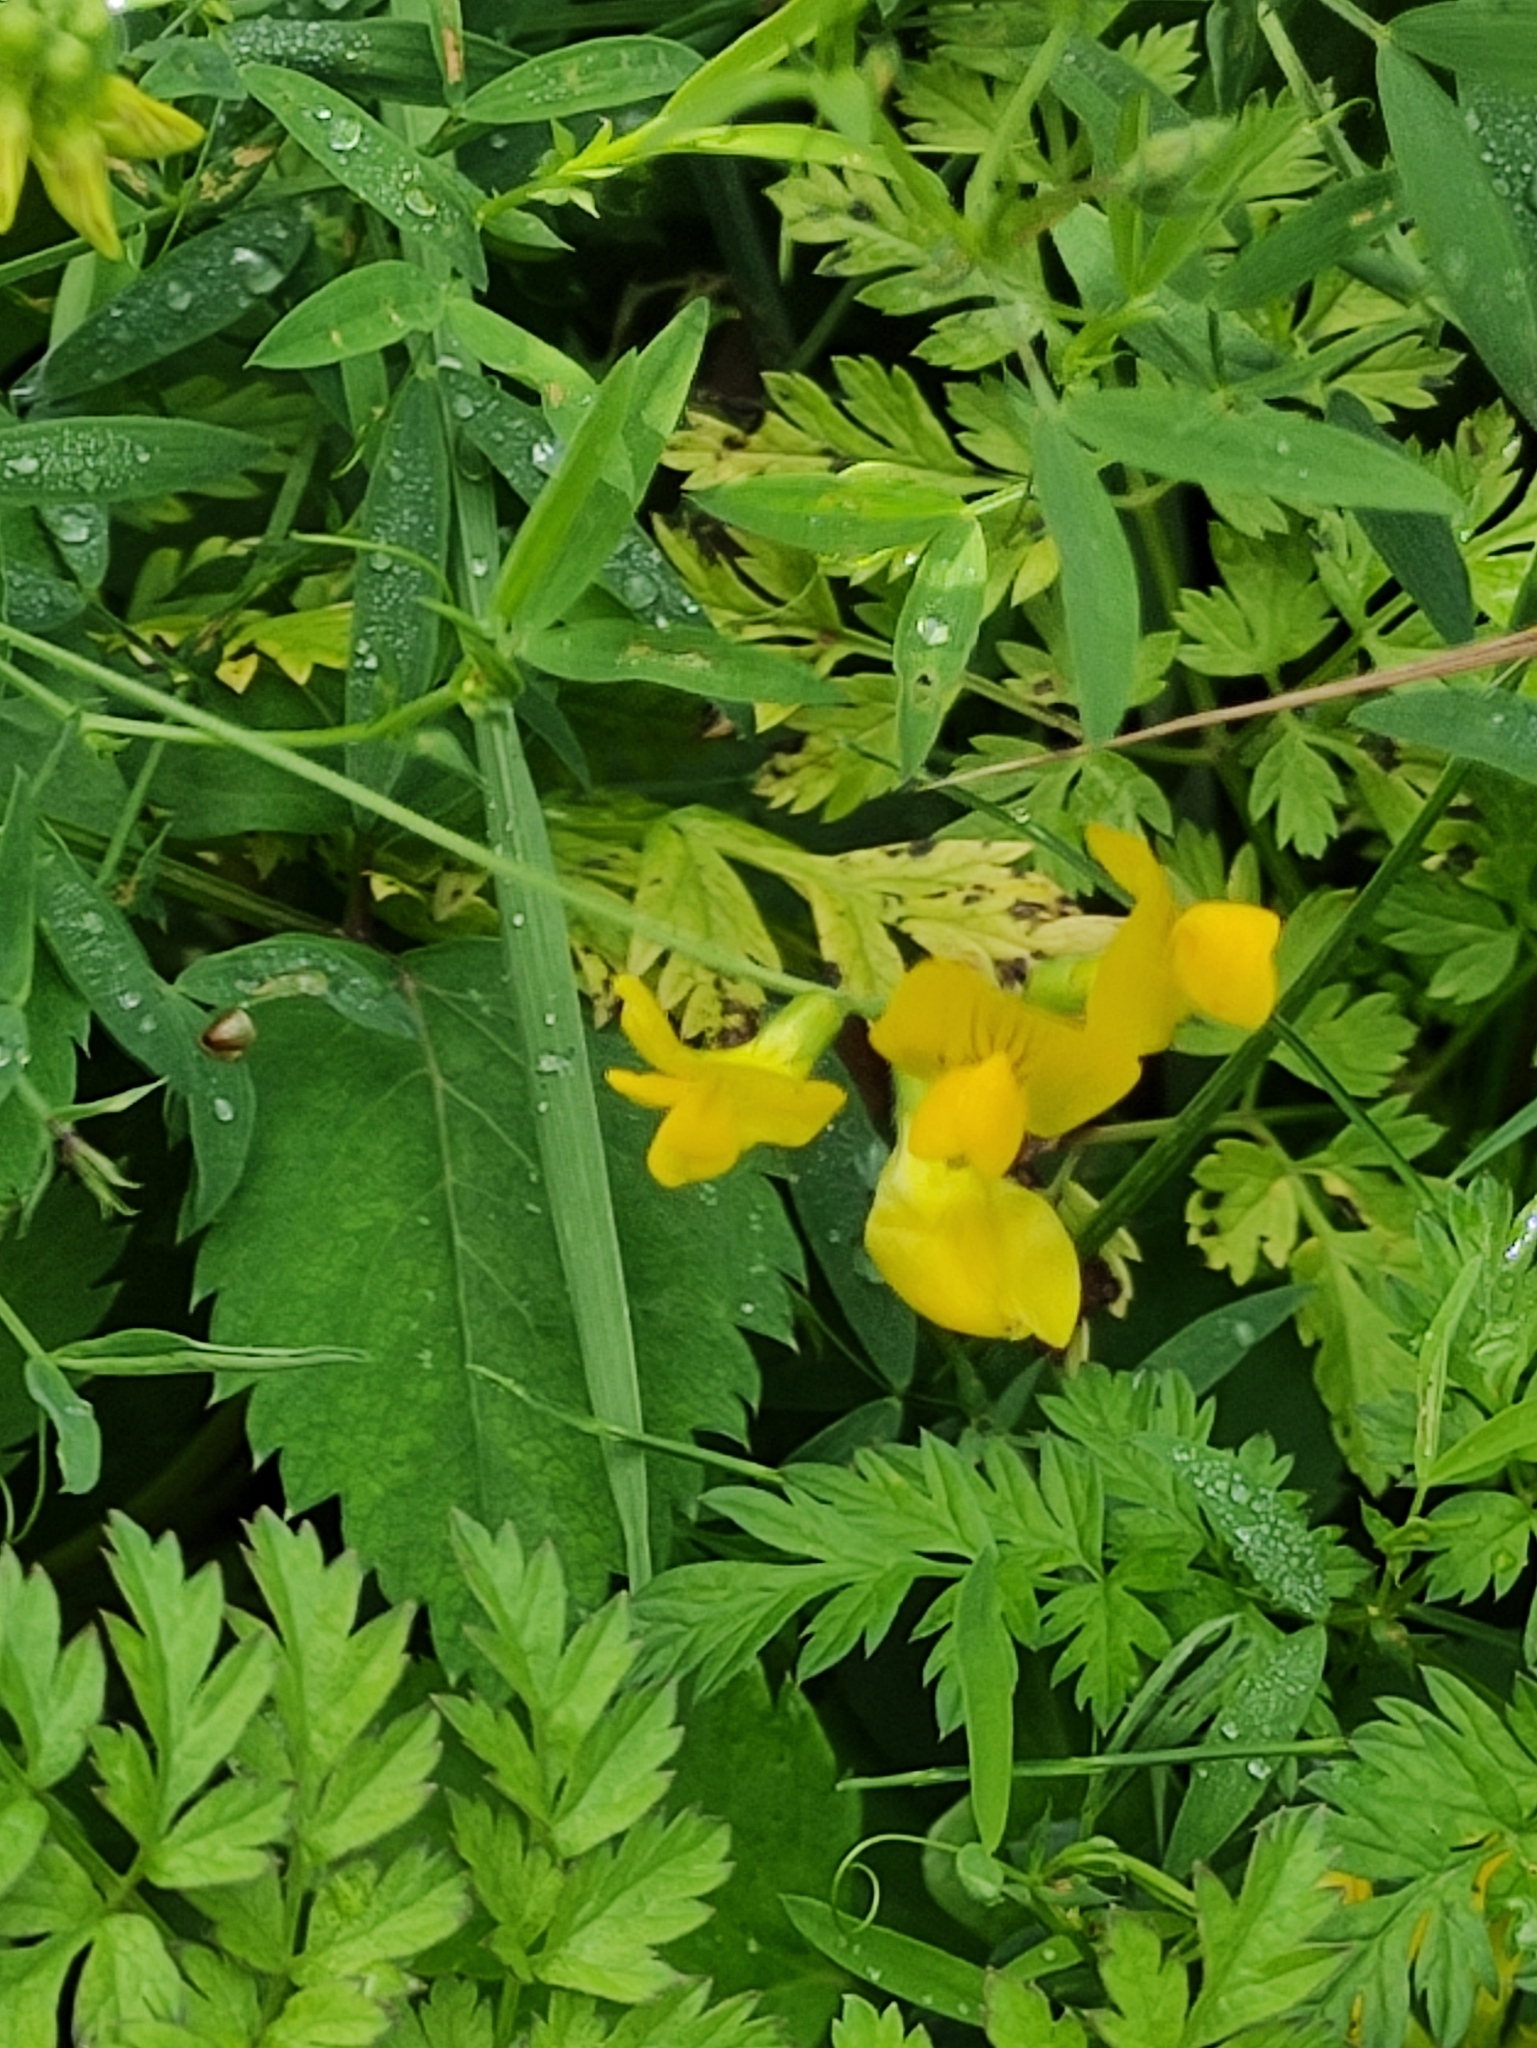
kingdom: Plantae
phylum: Tracheophyta
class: Magnoliopsida
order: Fabales
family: Fabaceae
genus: Lathyrus
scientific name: Lathyrus pratensis
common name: Meadow vetchling
